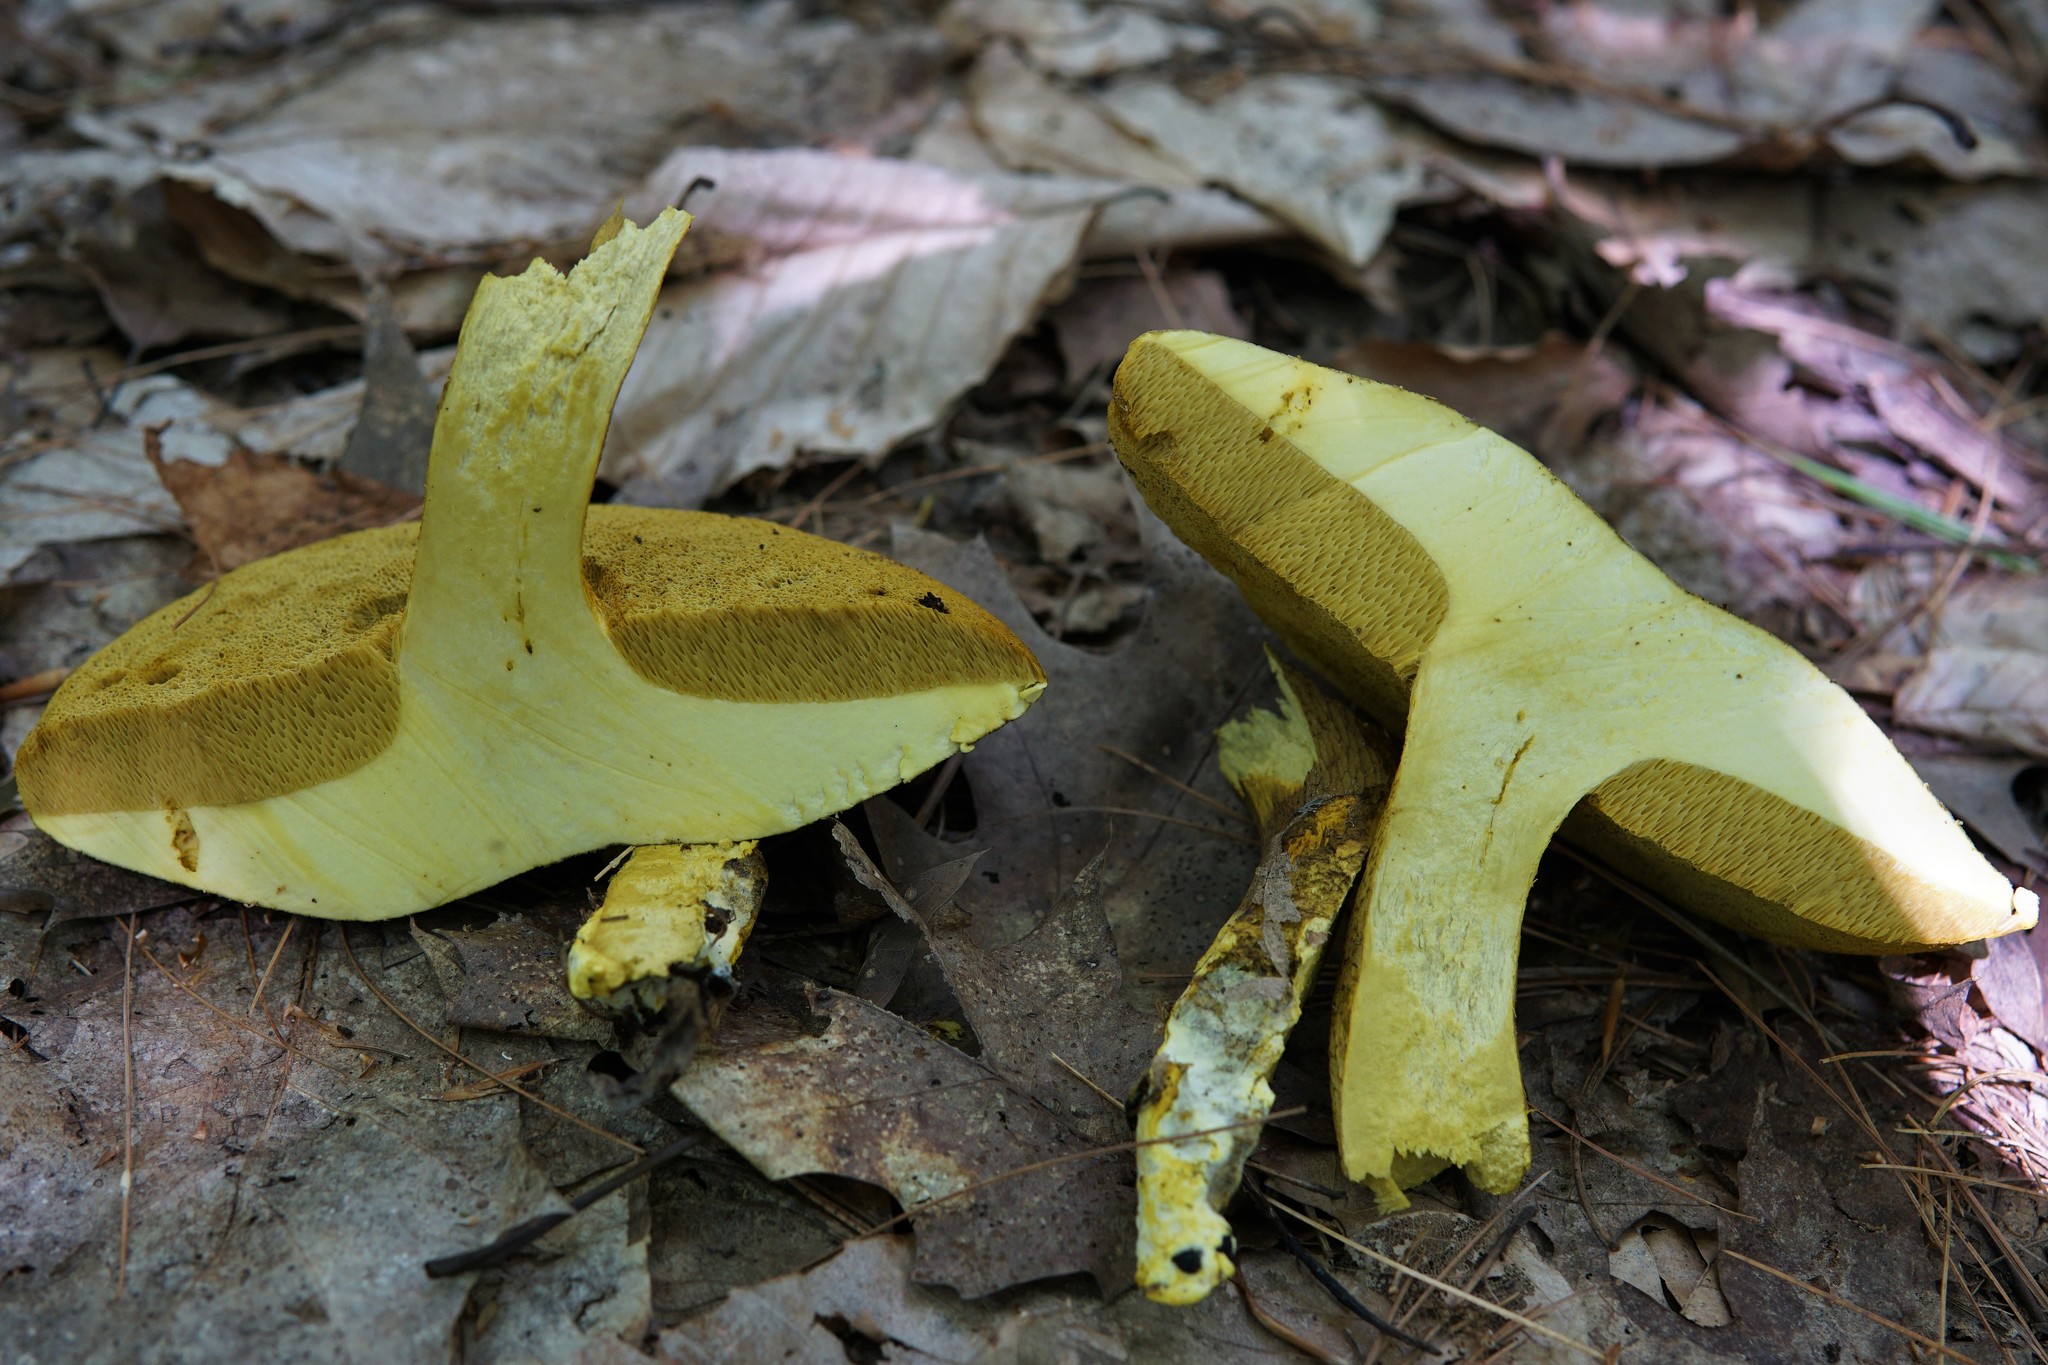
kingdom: Fungi
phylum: Basidiomycota
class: Agaricomycetes
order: Boletales
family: Boletaceae
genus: Retiboletus
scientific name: Retiboletus ornatipes
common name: Ornate-stalked bolete
